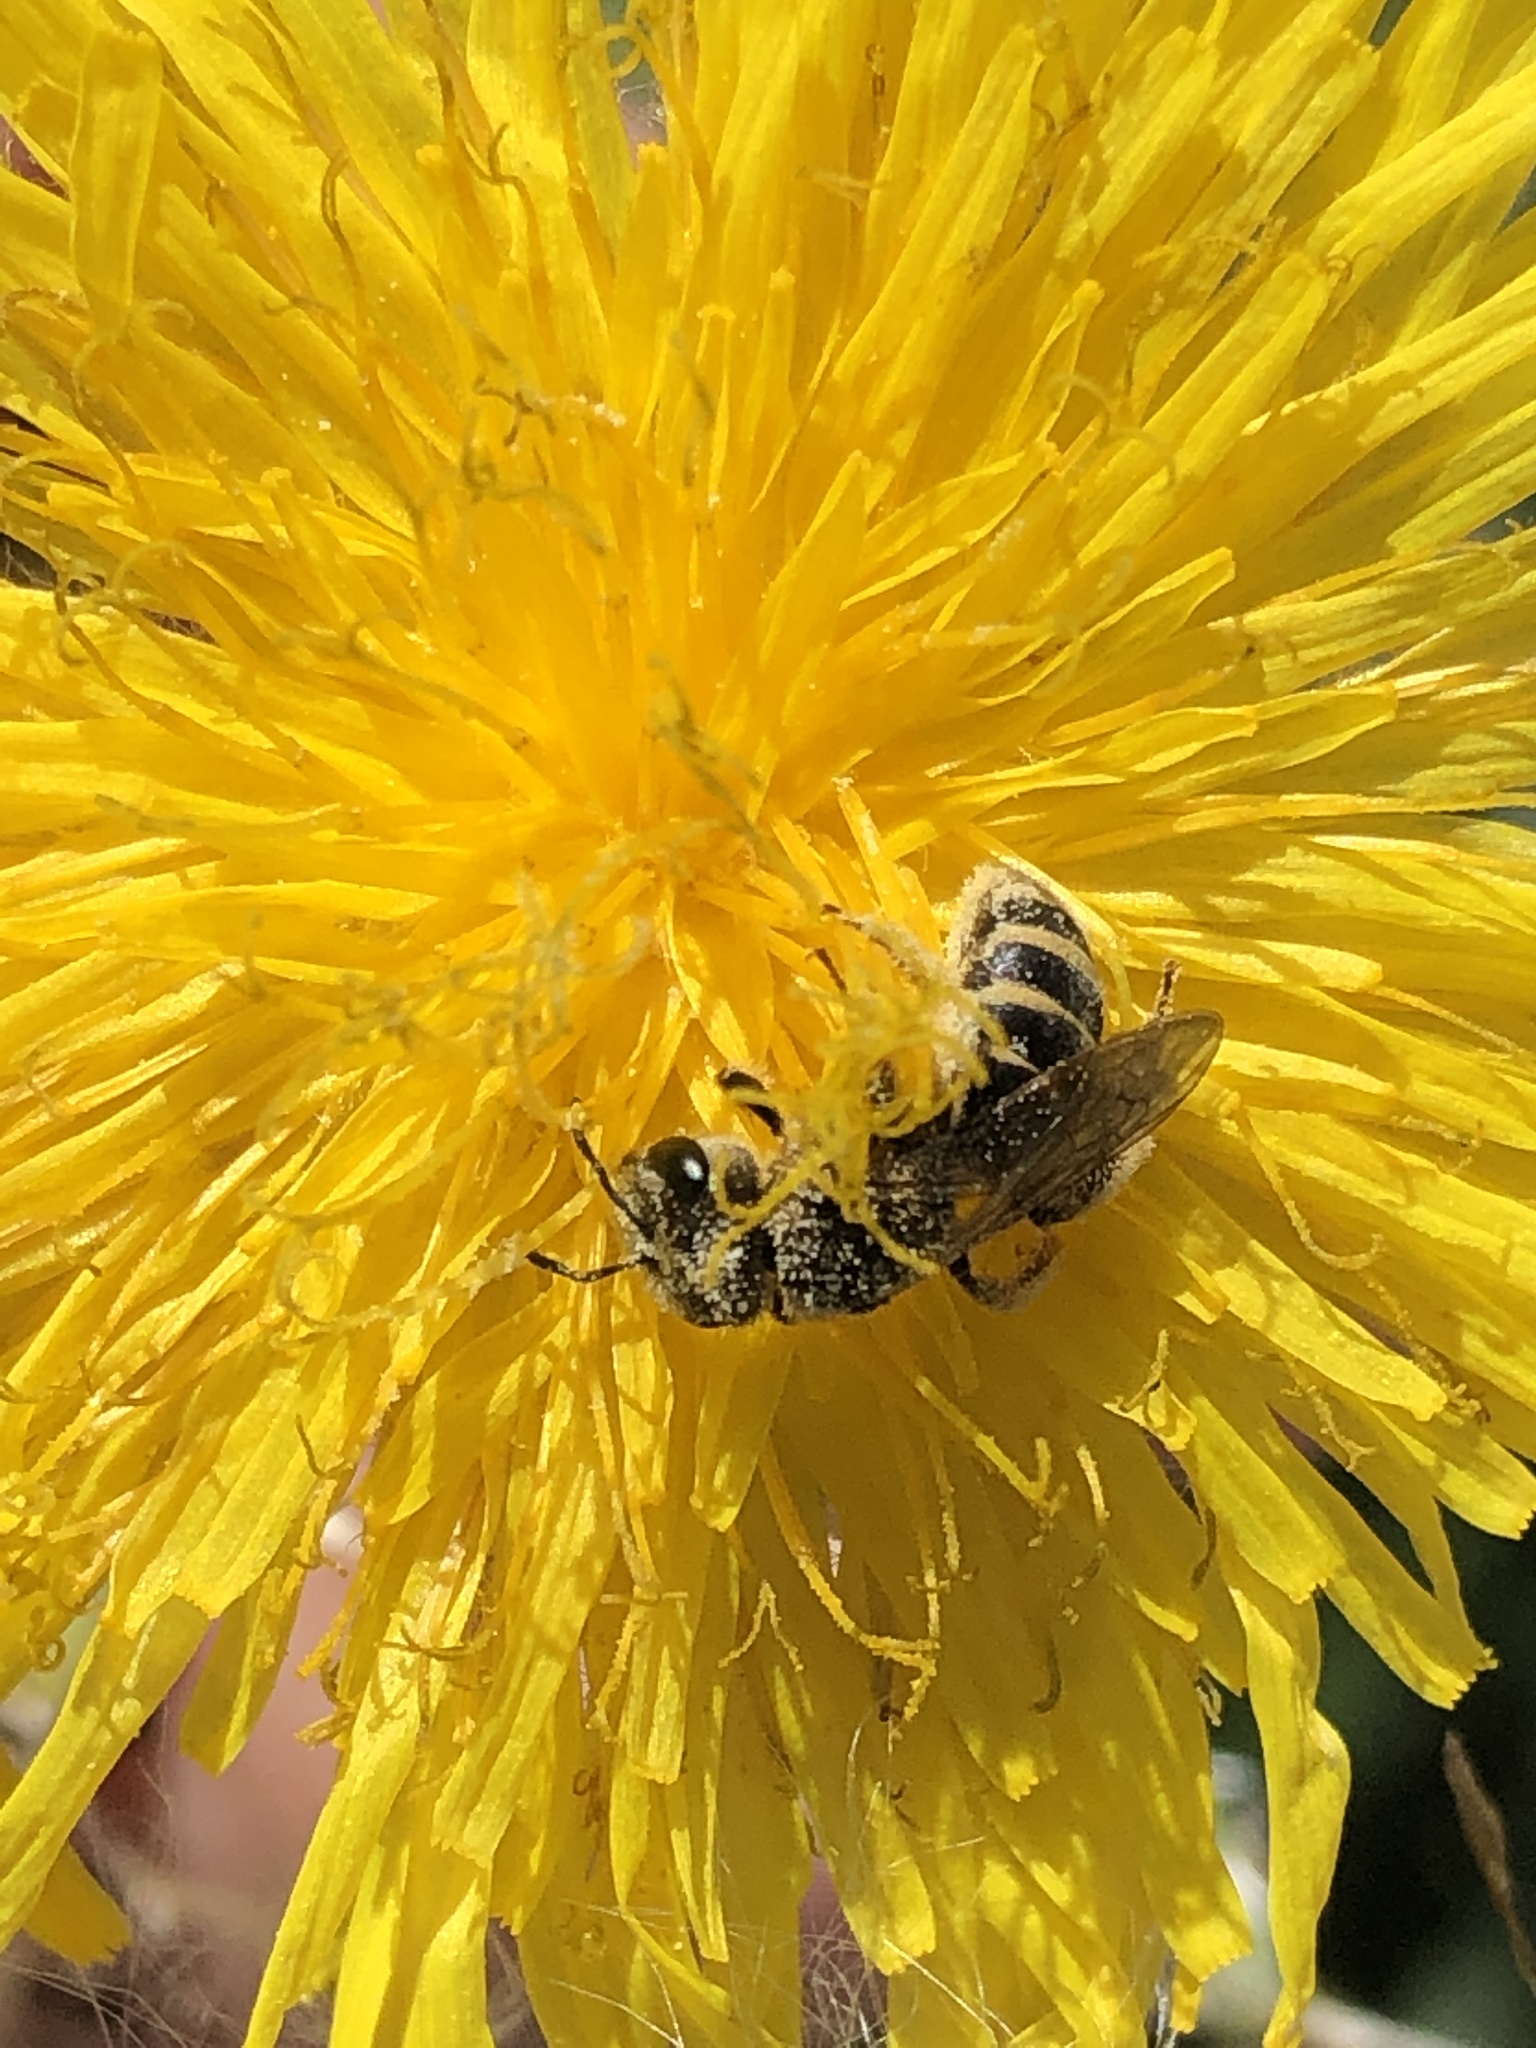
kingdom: Animalia
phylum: Arthropoda
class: Insecta
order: Hymenoptera
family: Halictidae
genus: Halictus
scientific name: Halictus ligatus
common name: Ligated furrow bee
